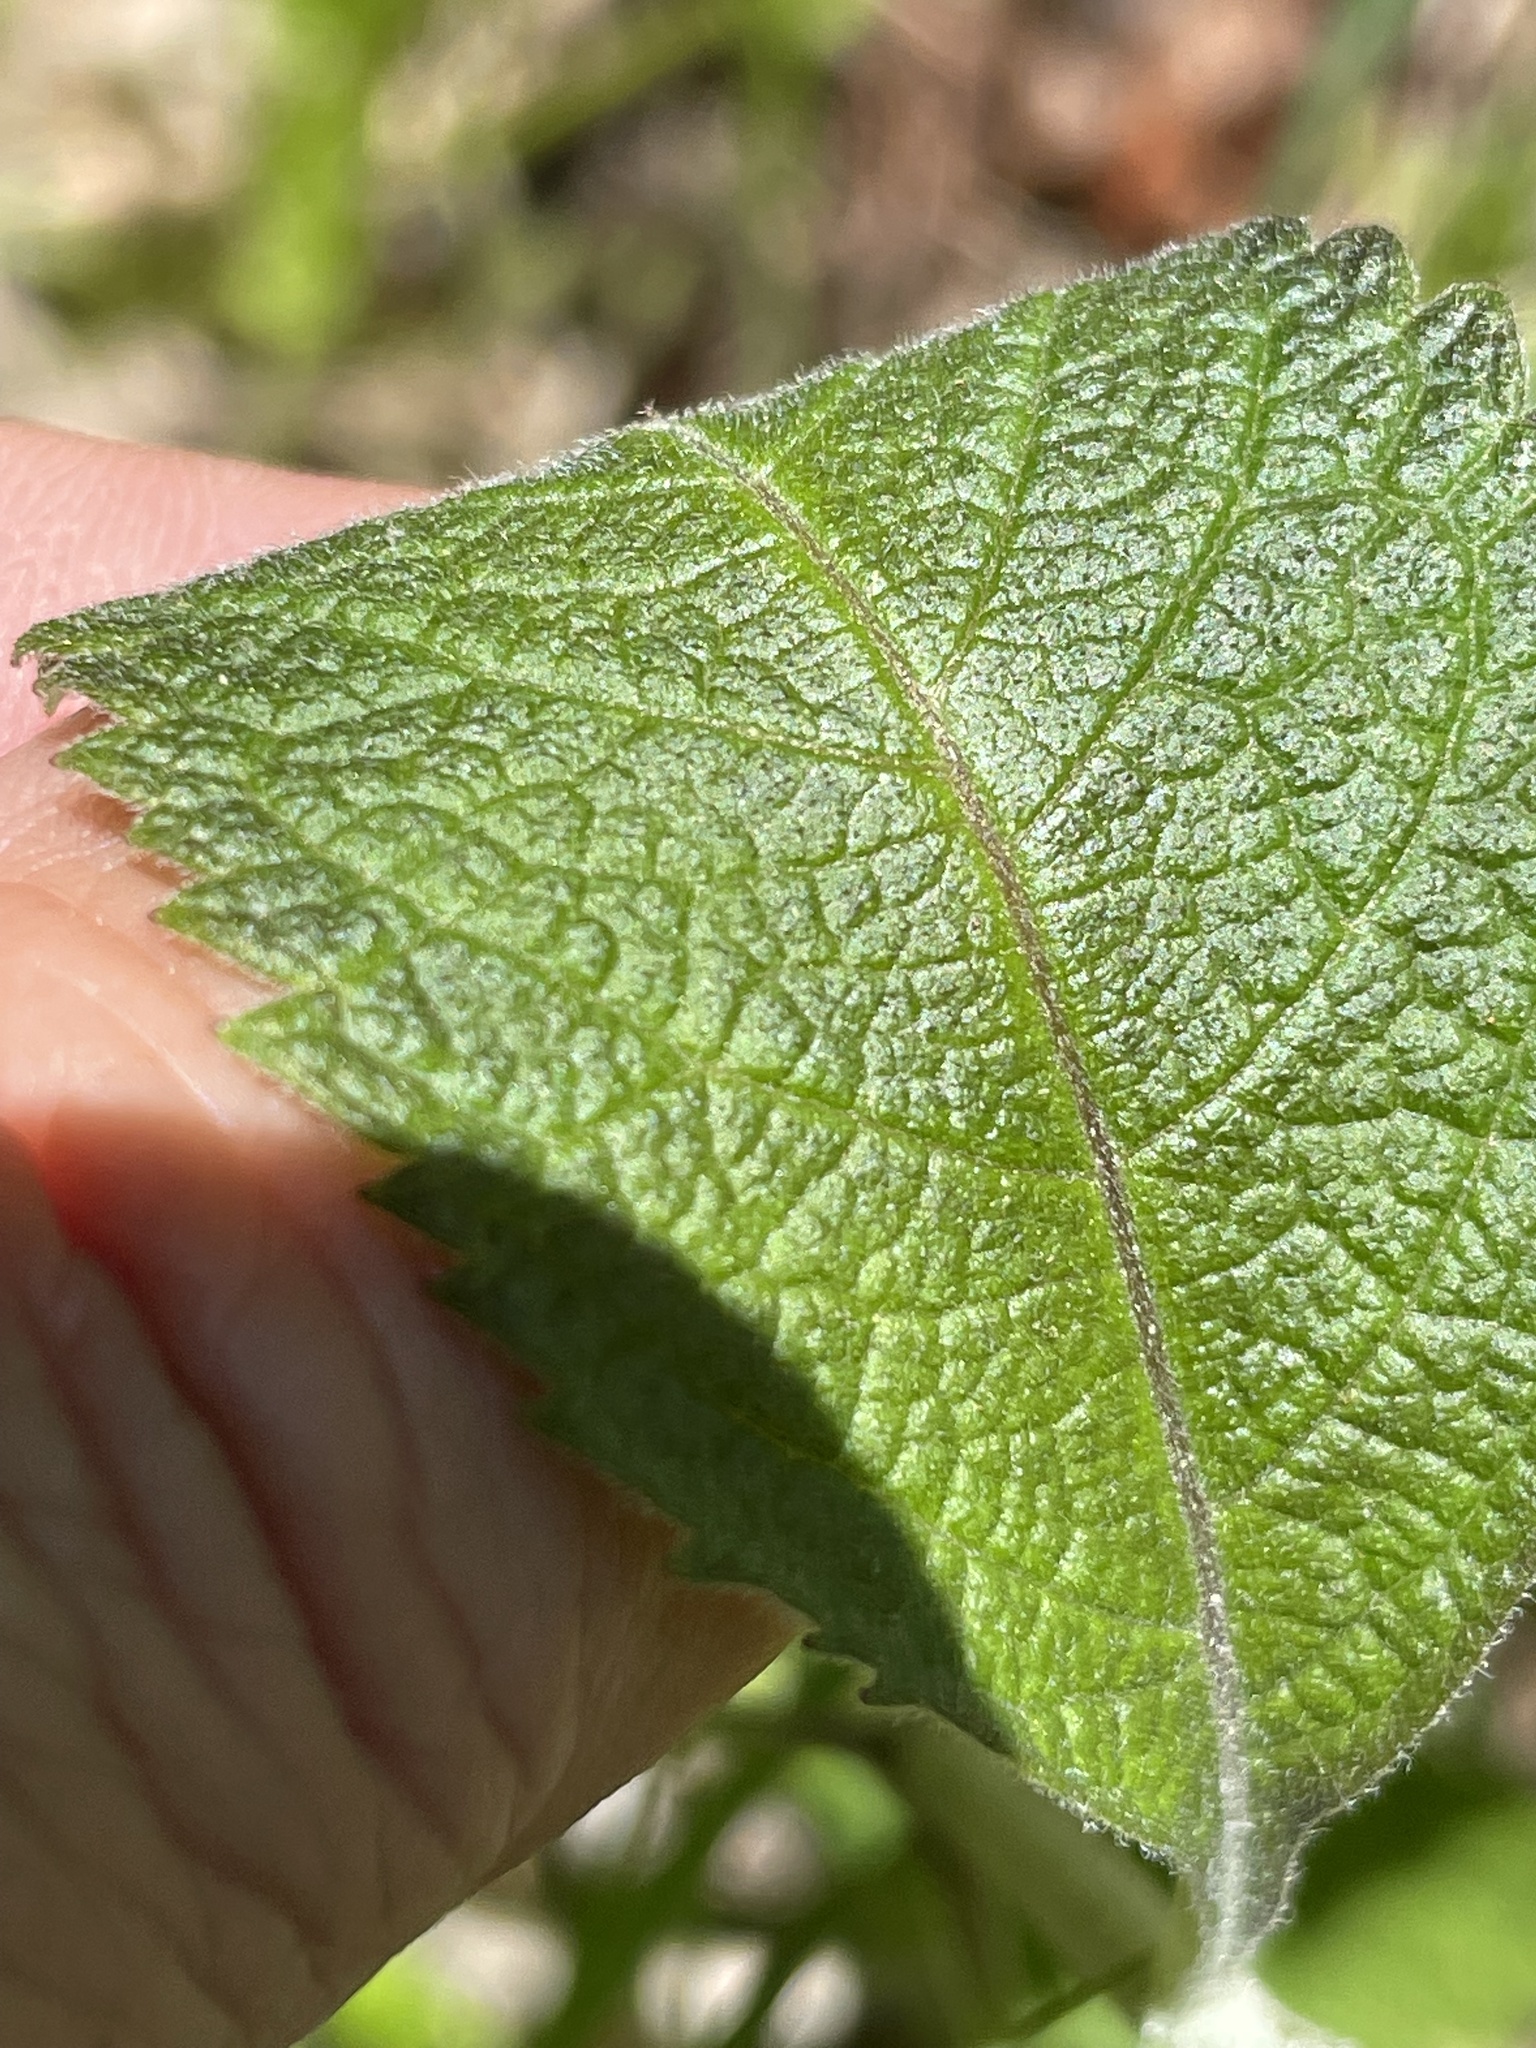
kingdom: Plantae
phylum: Tracheophyta
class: Magnoliopsida
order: Asterales
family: Asteraceae
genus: Eutrochium
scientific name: Eutrochium purpureum
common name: Gravelroot
